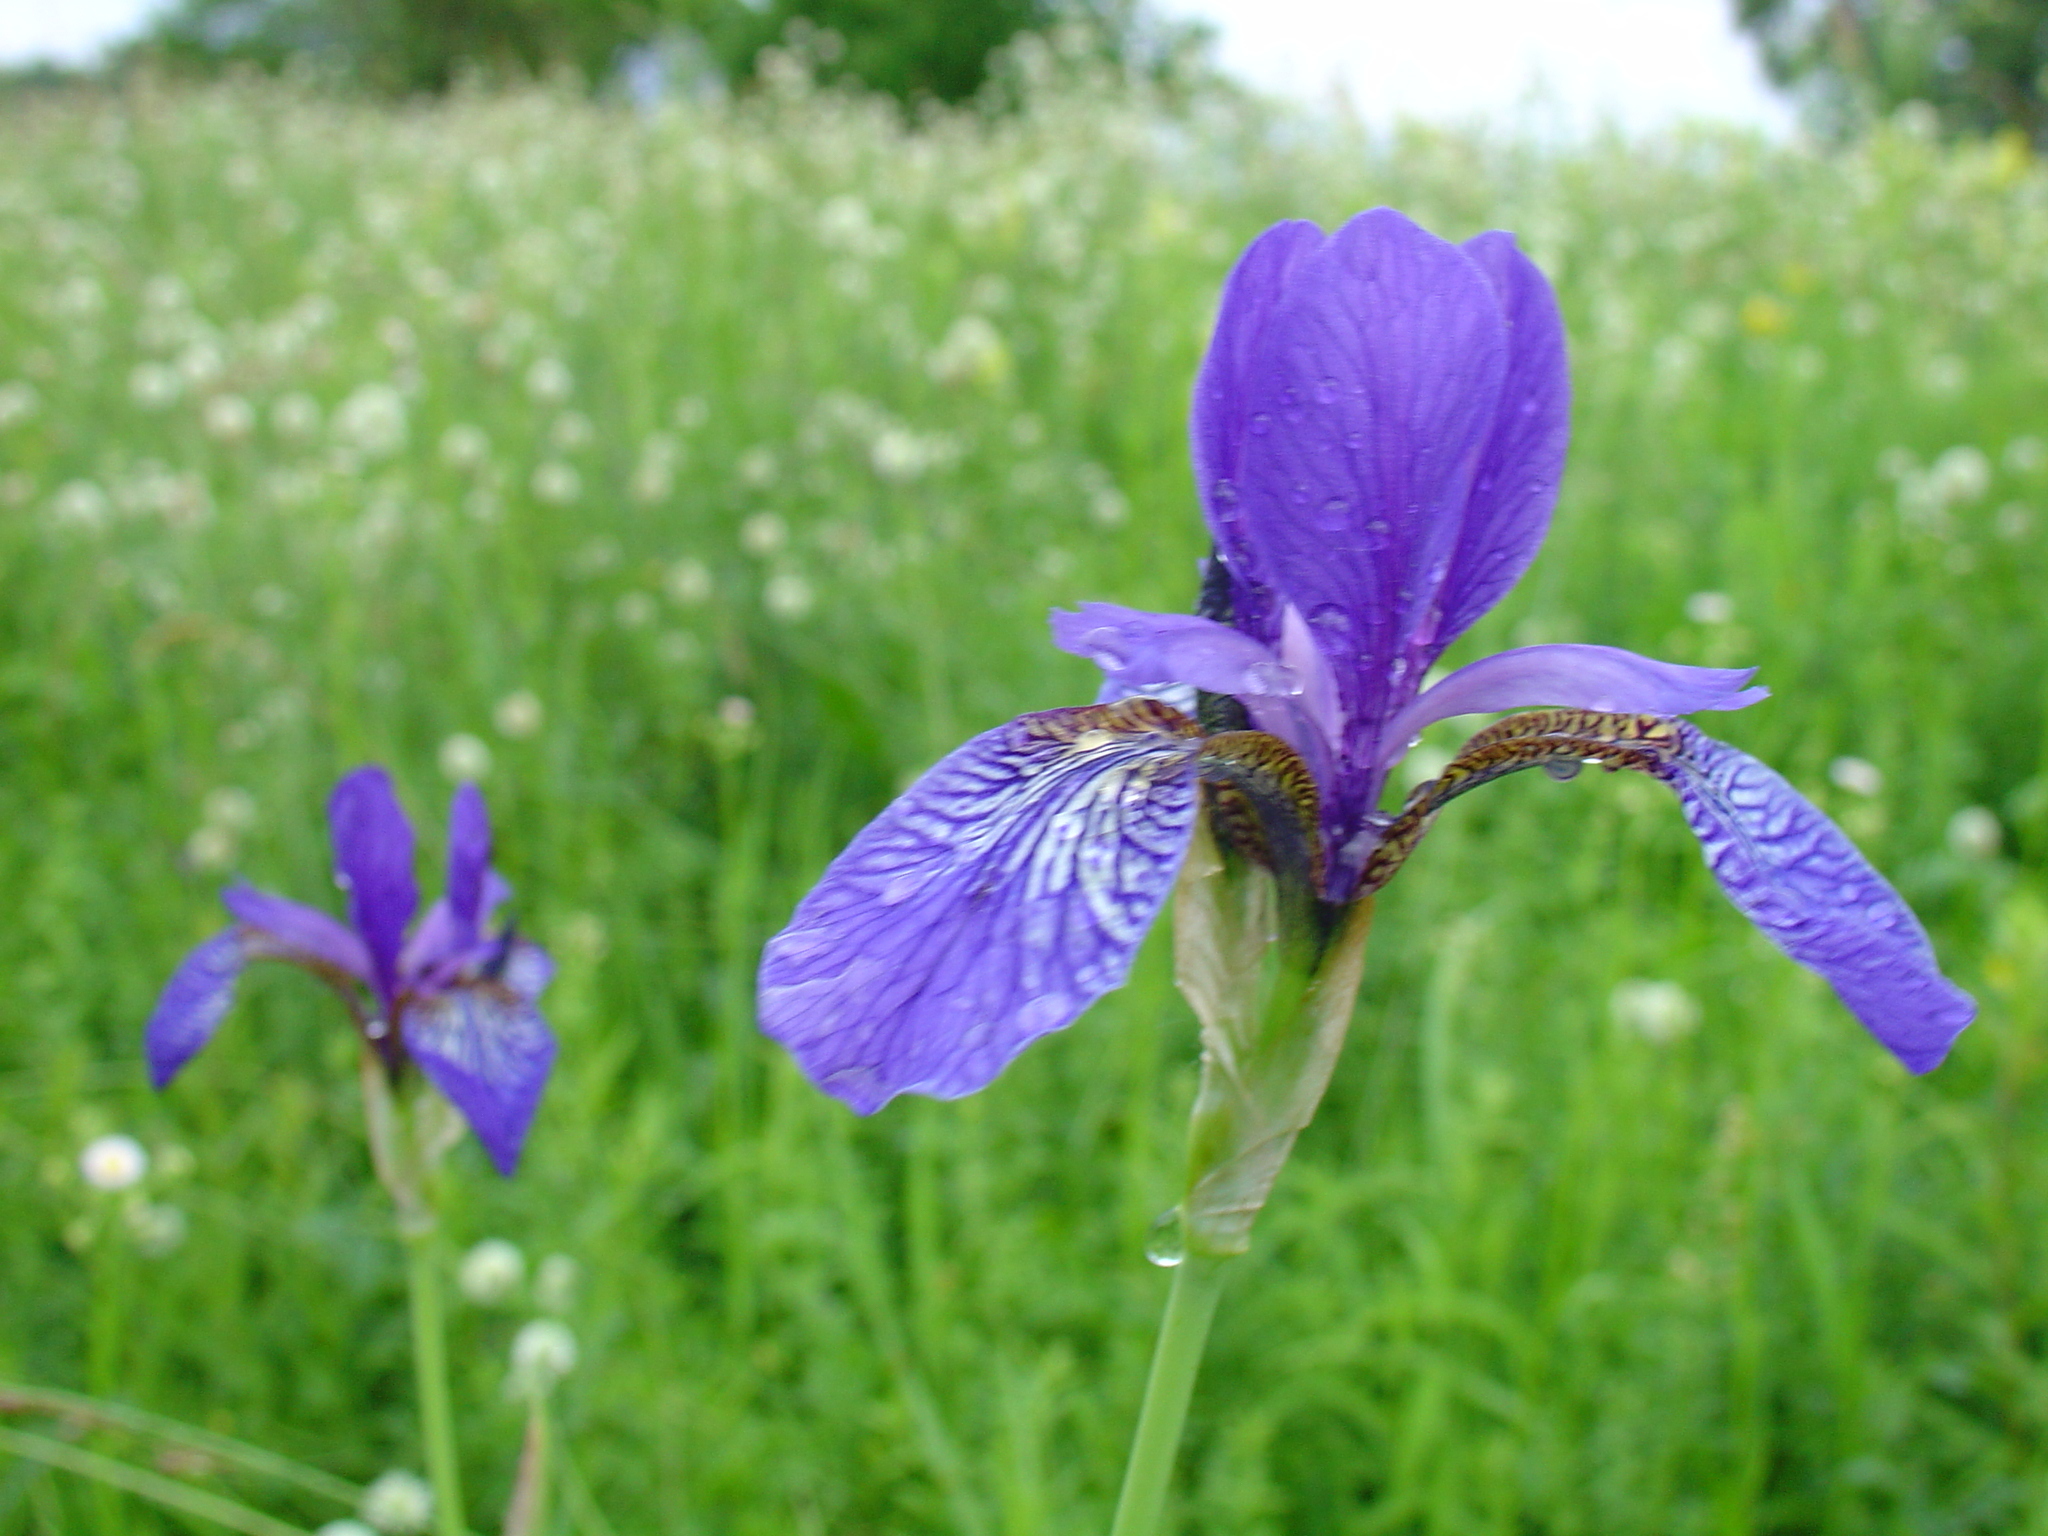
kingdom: Plantae
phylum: Tracheophyta
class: Liliopsida
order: Asparagales
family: Iridaceae
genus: Iris
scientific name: Iris sibirica
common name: Siberian iris
